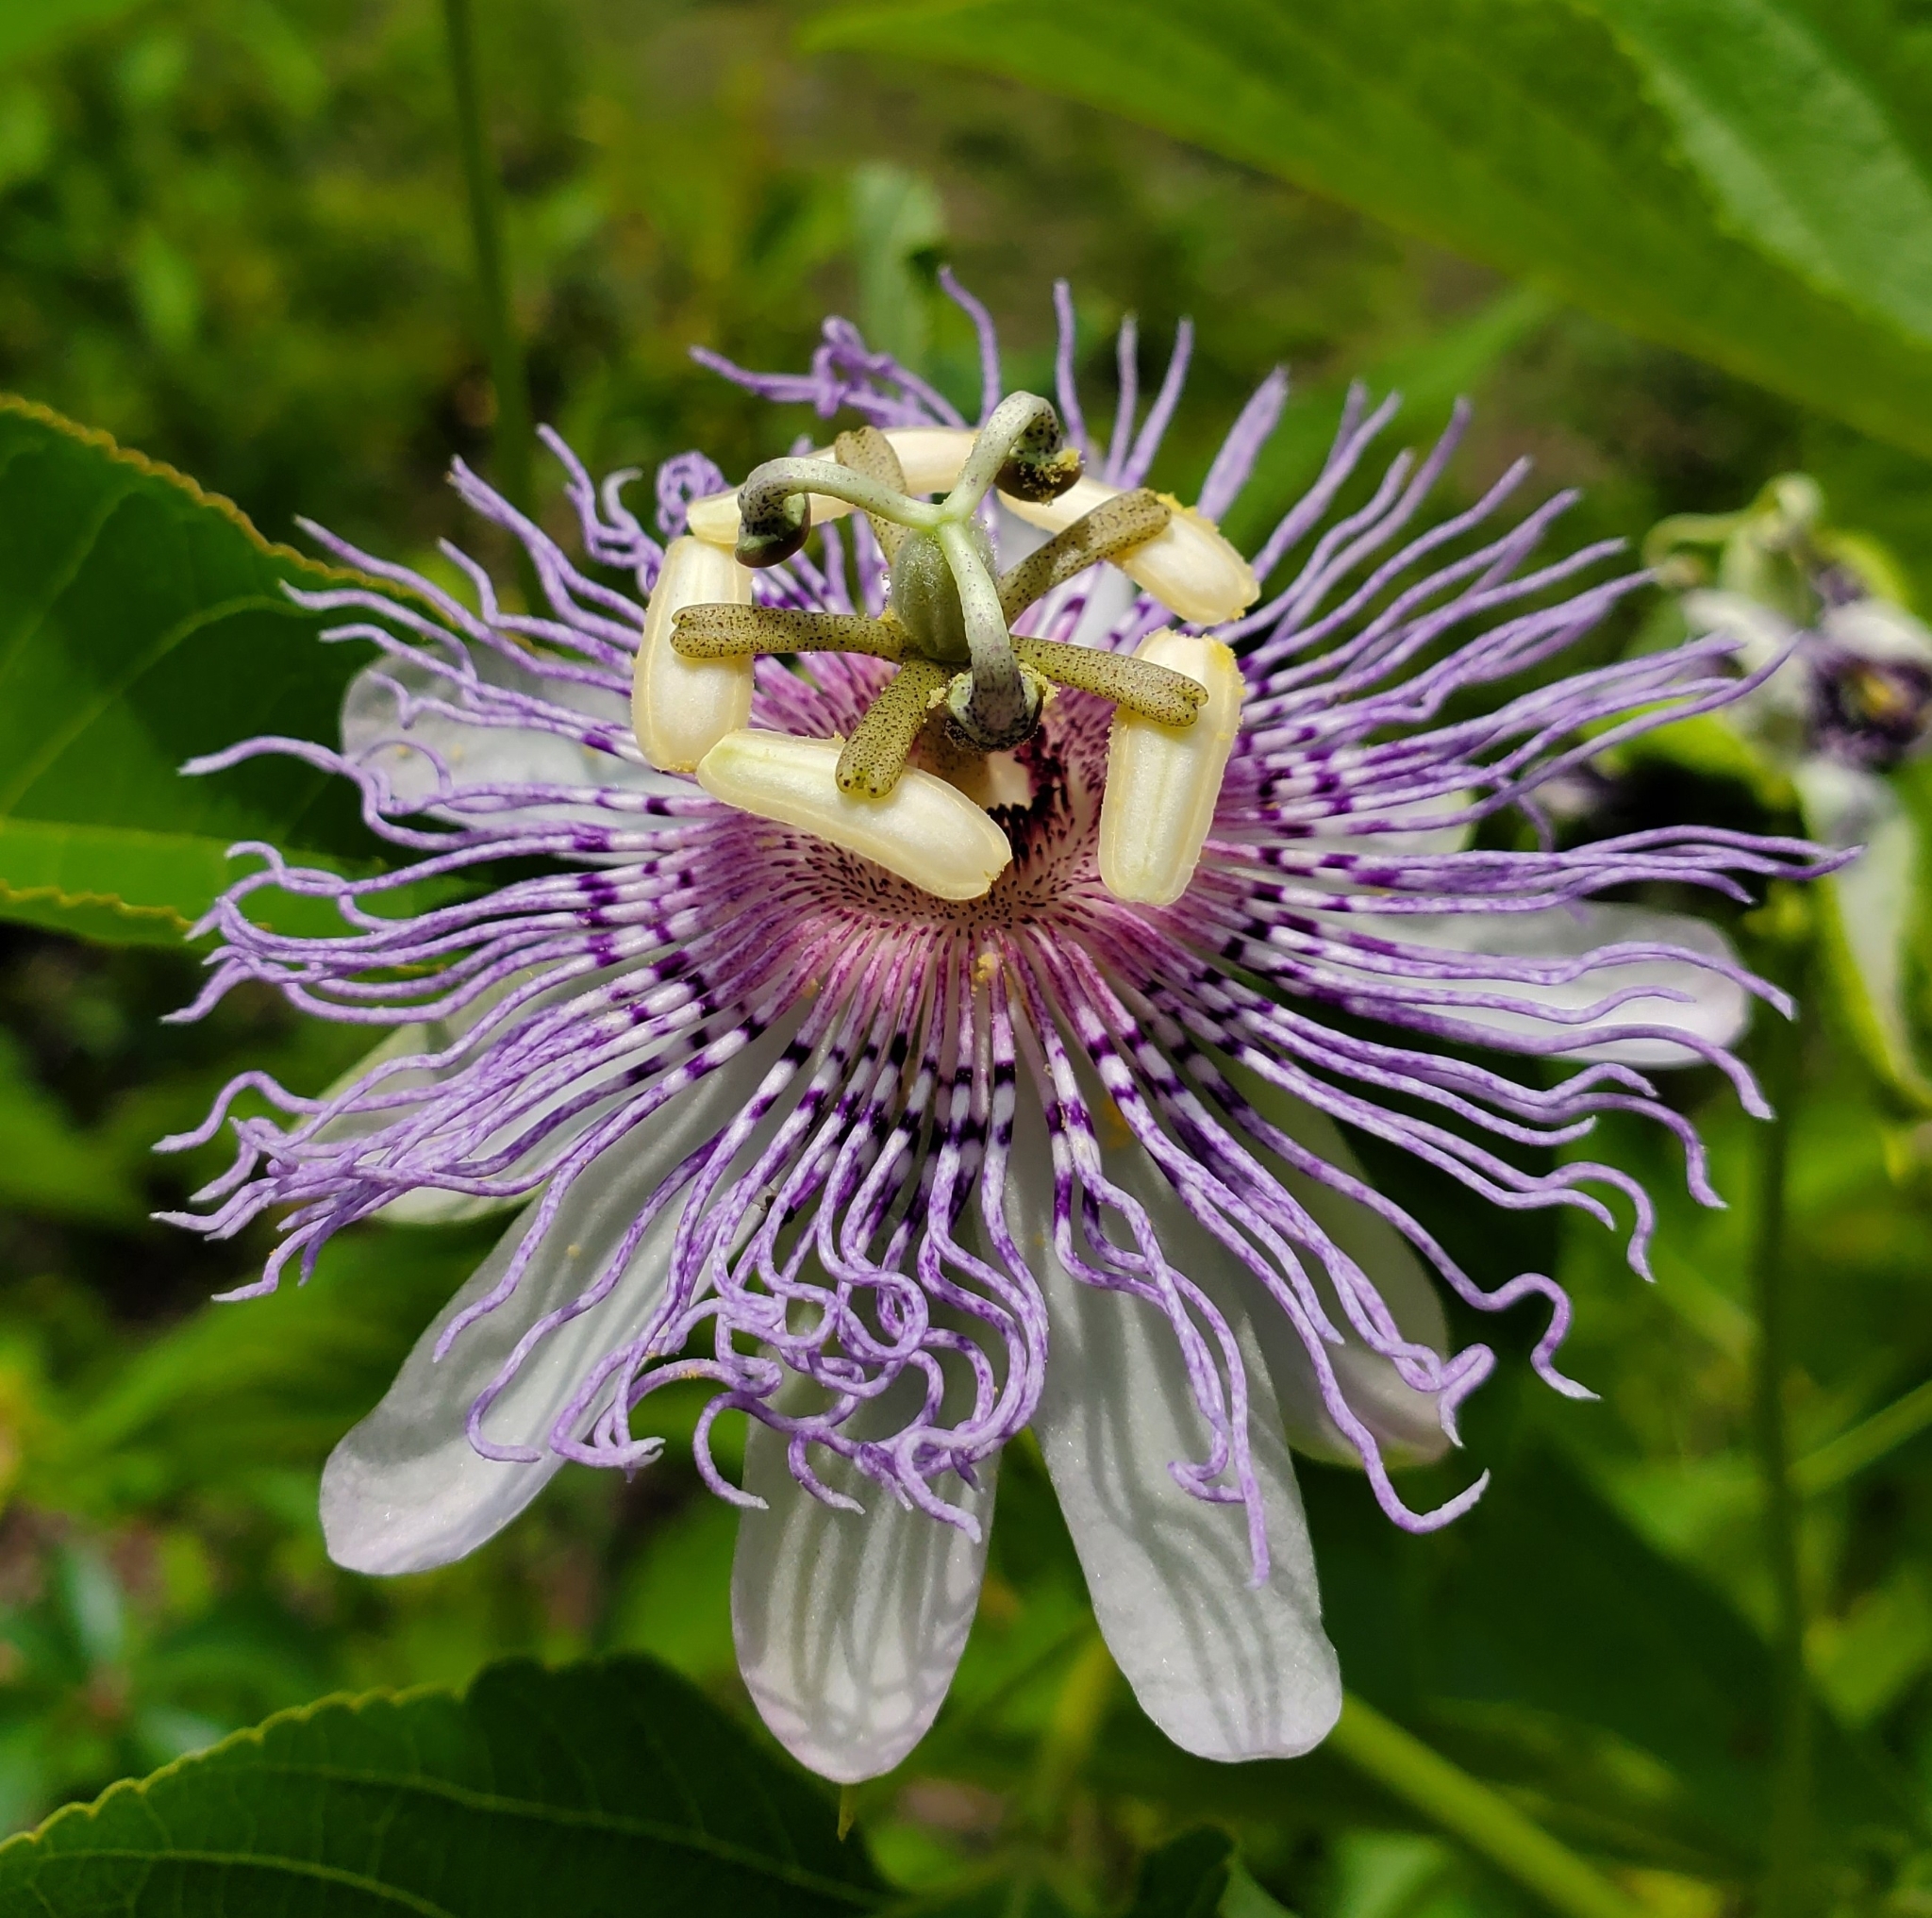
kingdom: Plantae
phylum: Tracheophyta
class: Magnoliopsida
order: Malpighiales
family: Passifloraceae
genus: Passiflora
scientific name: Passiflora incarnata
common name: Apricot-vine
